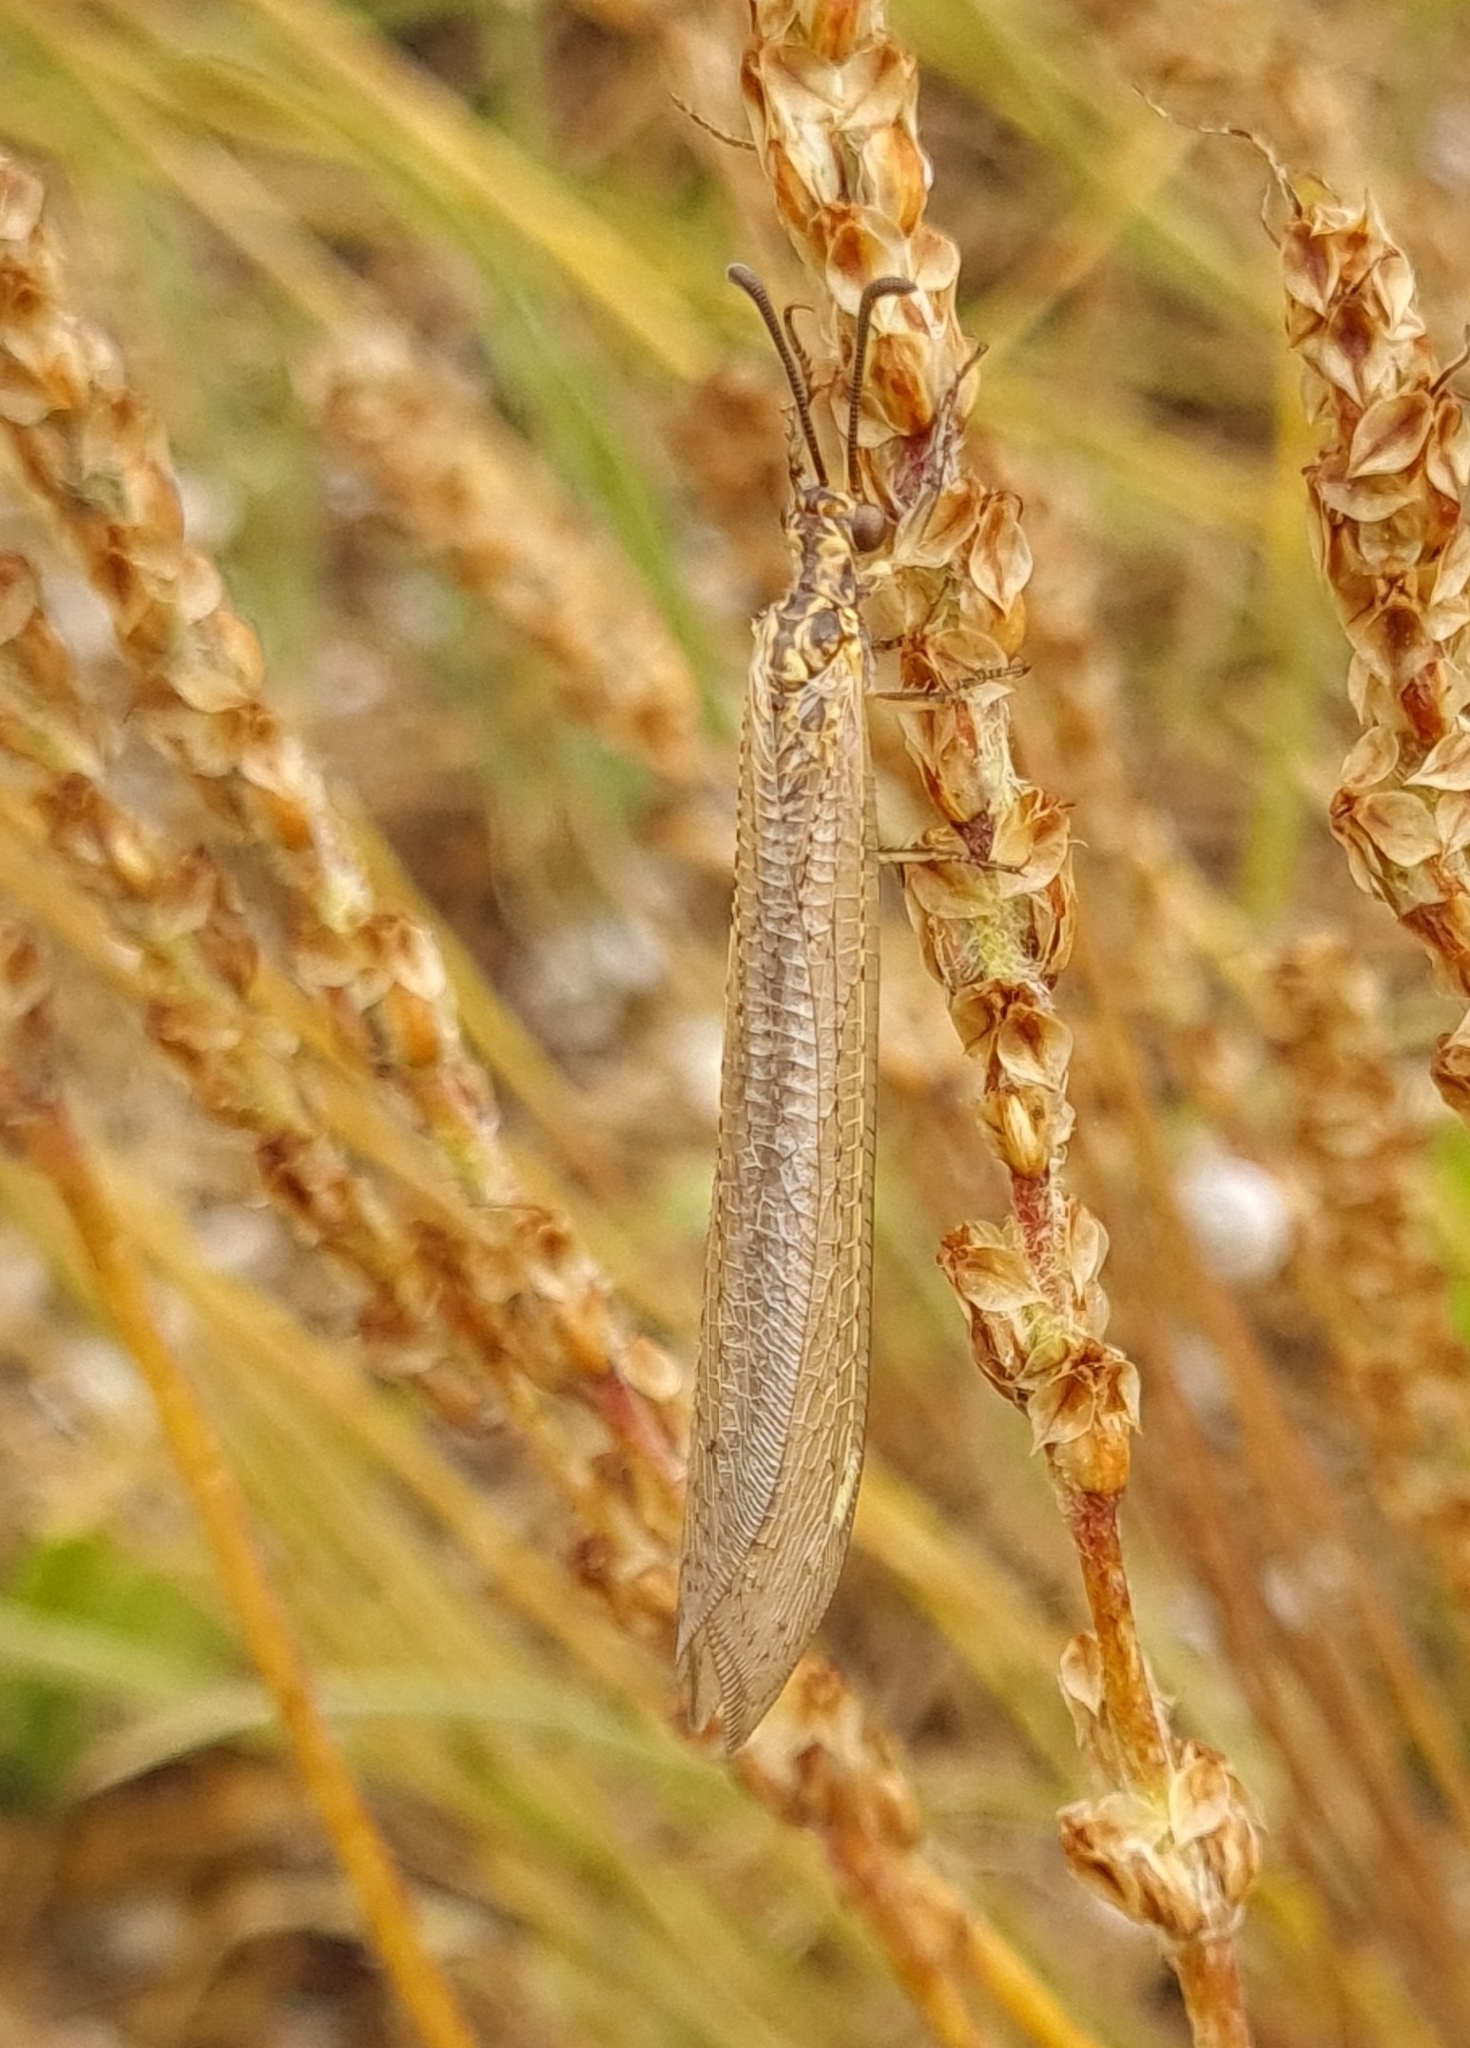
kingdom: Animalia
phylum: Arthropoda
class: Insecta
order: Neuroptera
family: Myrmeleontidae
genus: Creoleon
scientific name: Creoleon lugdunensis
